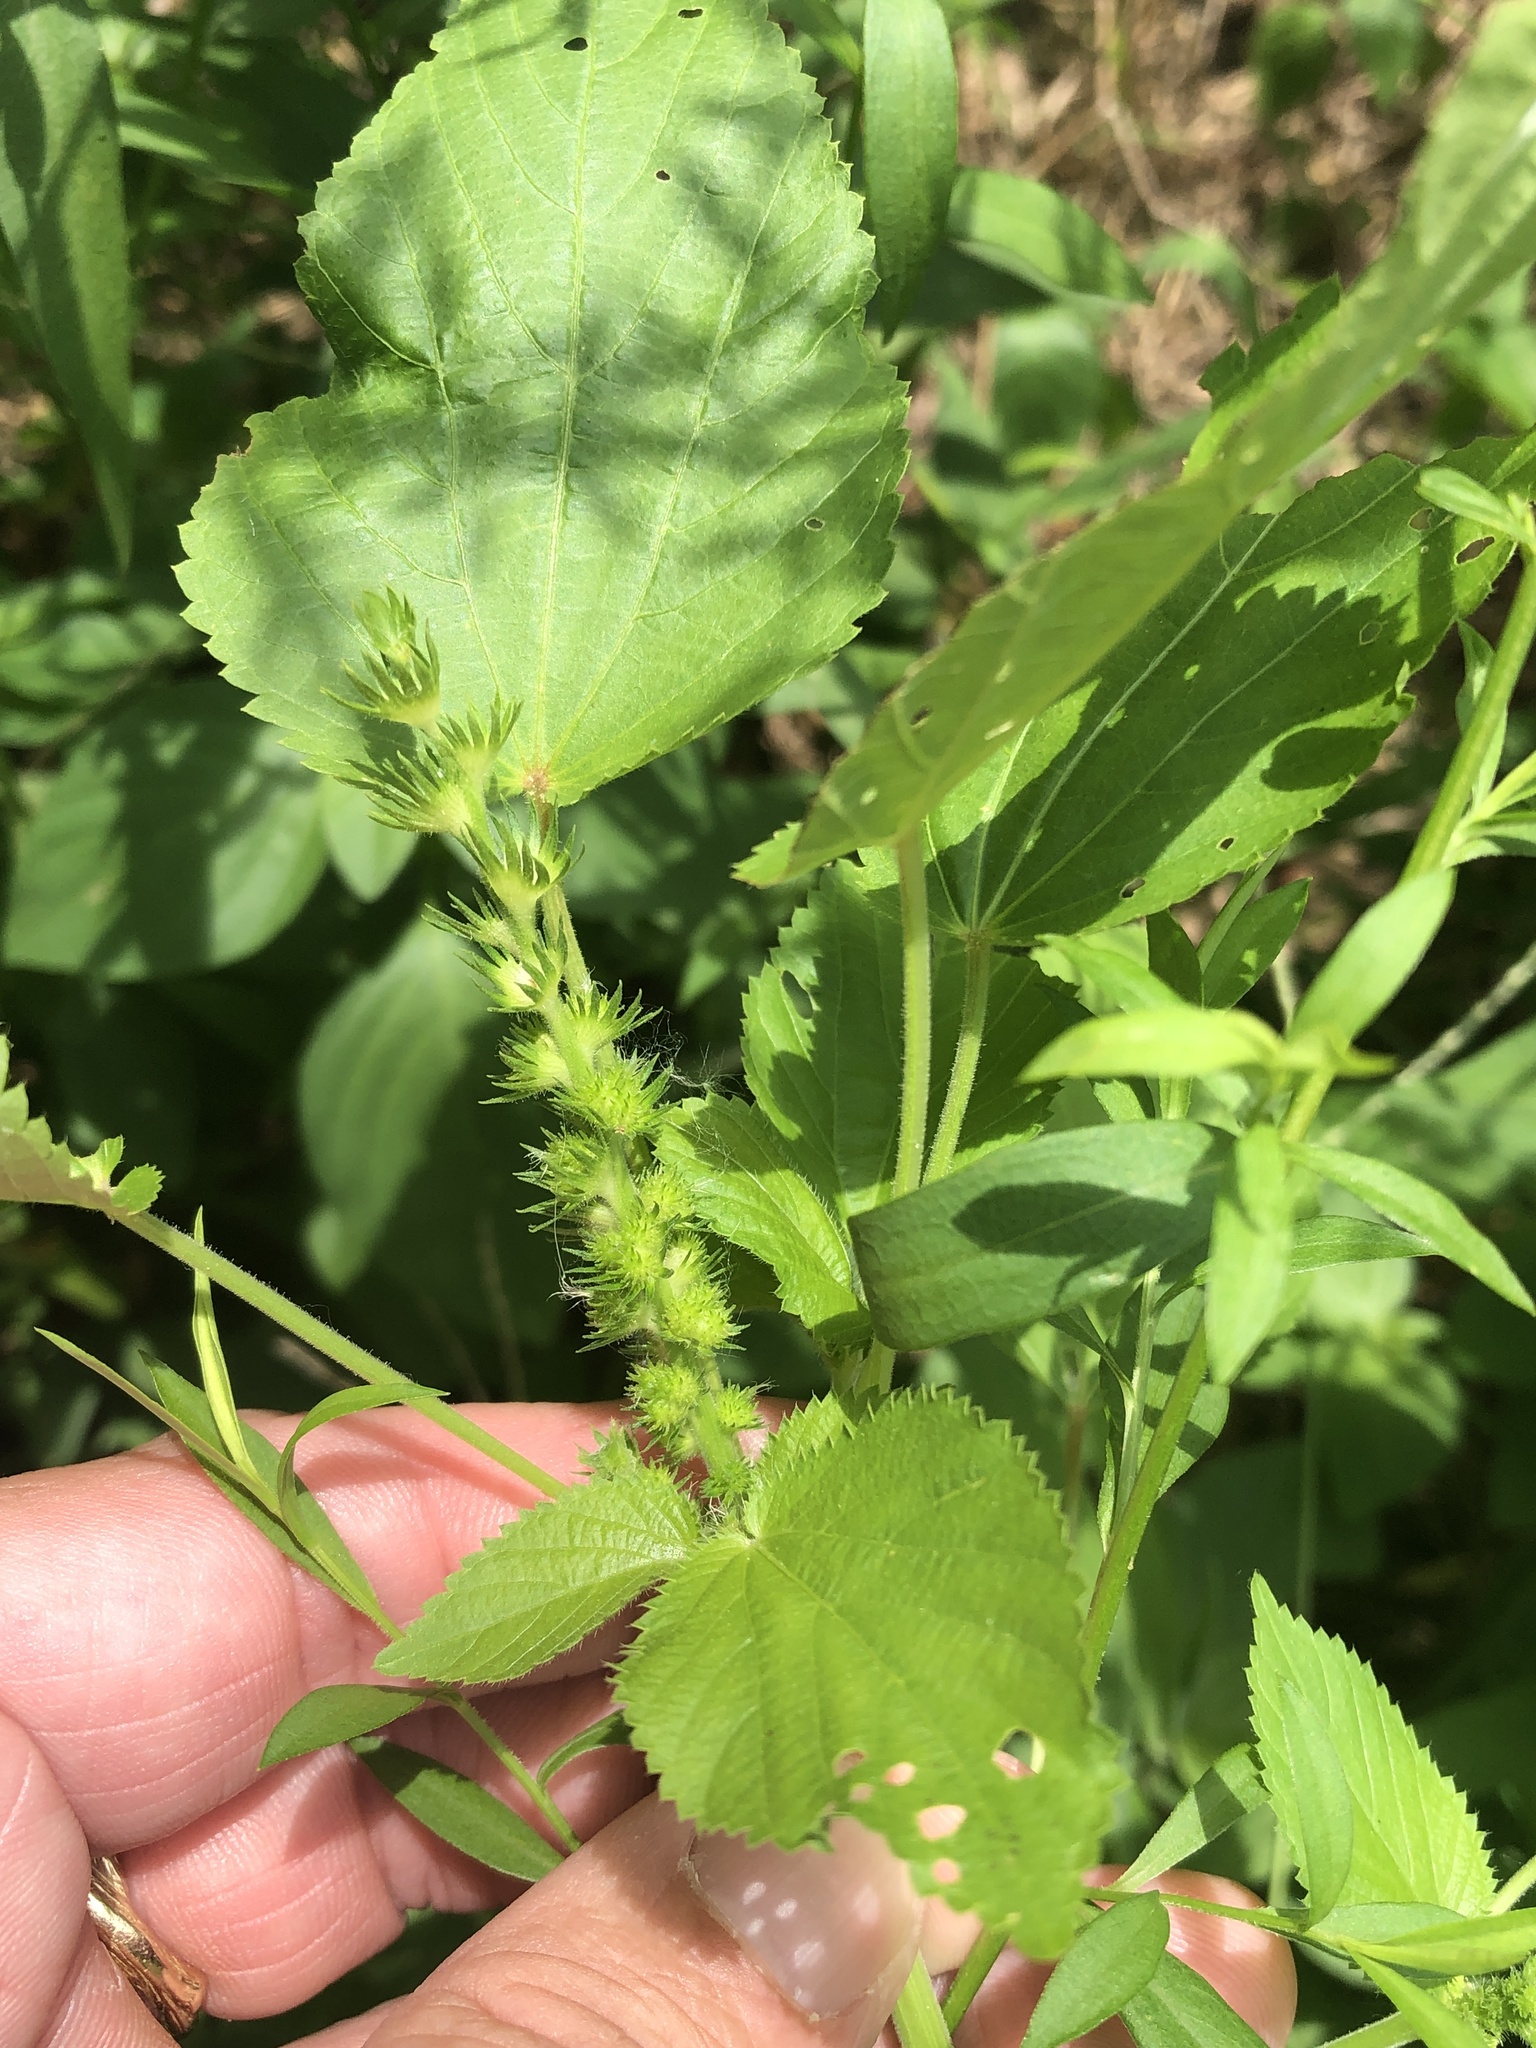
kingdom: Plantae
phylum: Tracheophyta
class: Magnoliopsida
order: Malpighiales
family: Euphorbiaceae
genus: Acalypha
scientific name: Acalypha ostryifolia
